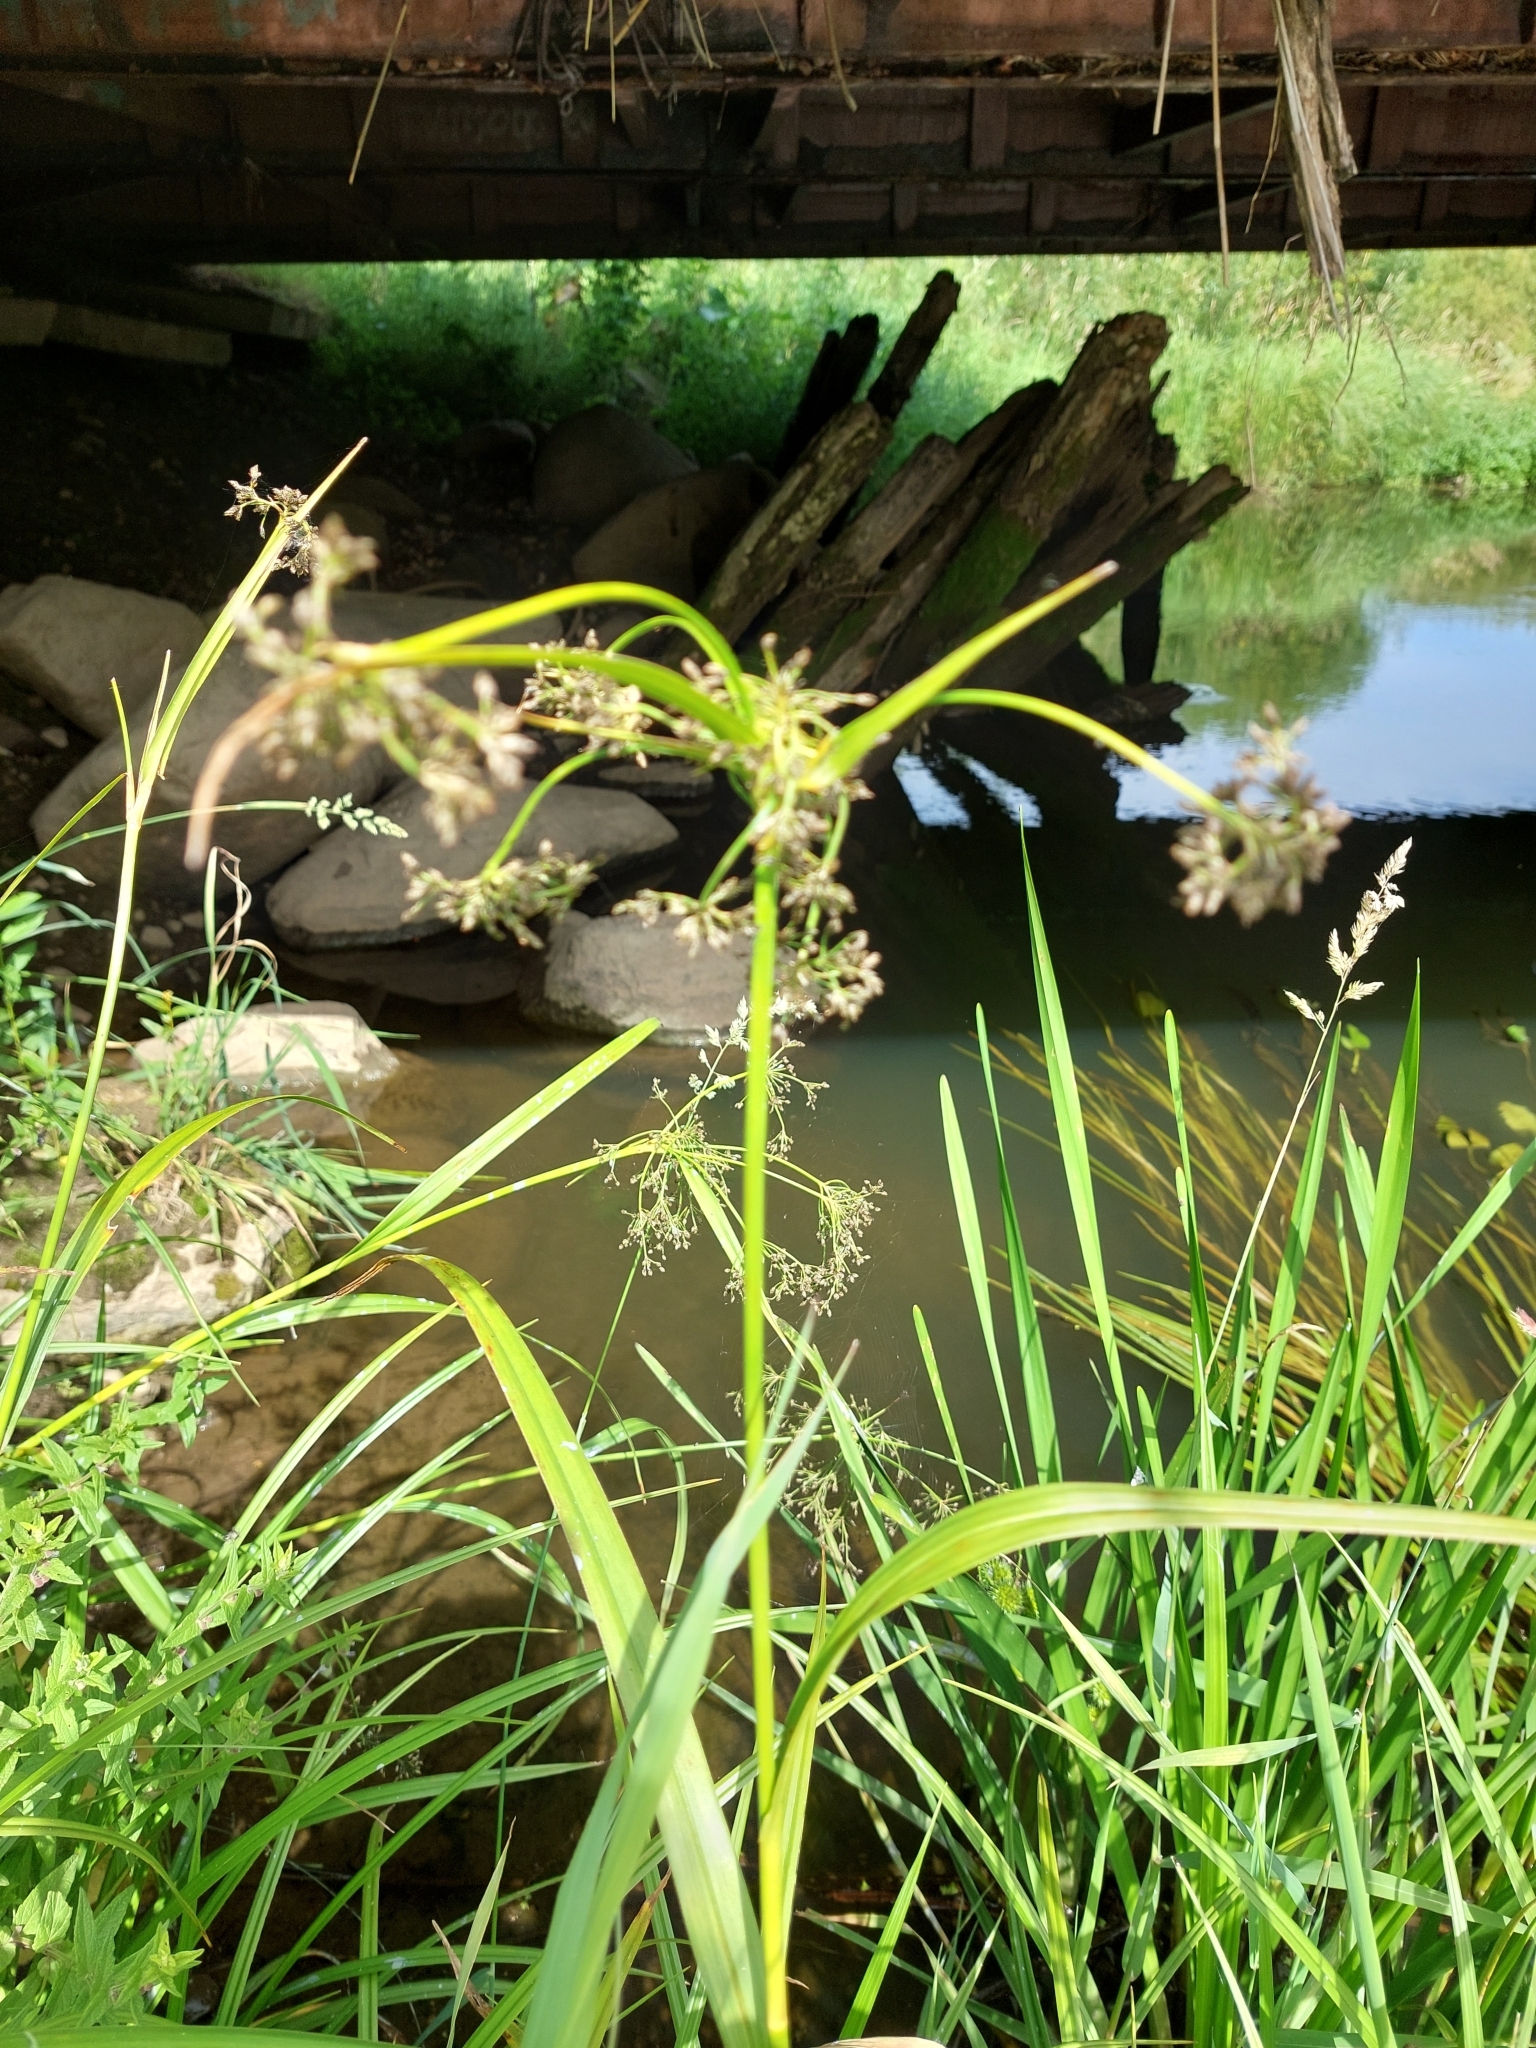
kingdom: Plantae
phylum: Tracheophyta
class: Liliopsida
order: Poales
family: Cyperaceae
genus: Scirpus
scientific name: Scirpus sylvaticus
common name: Wood club-rush
